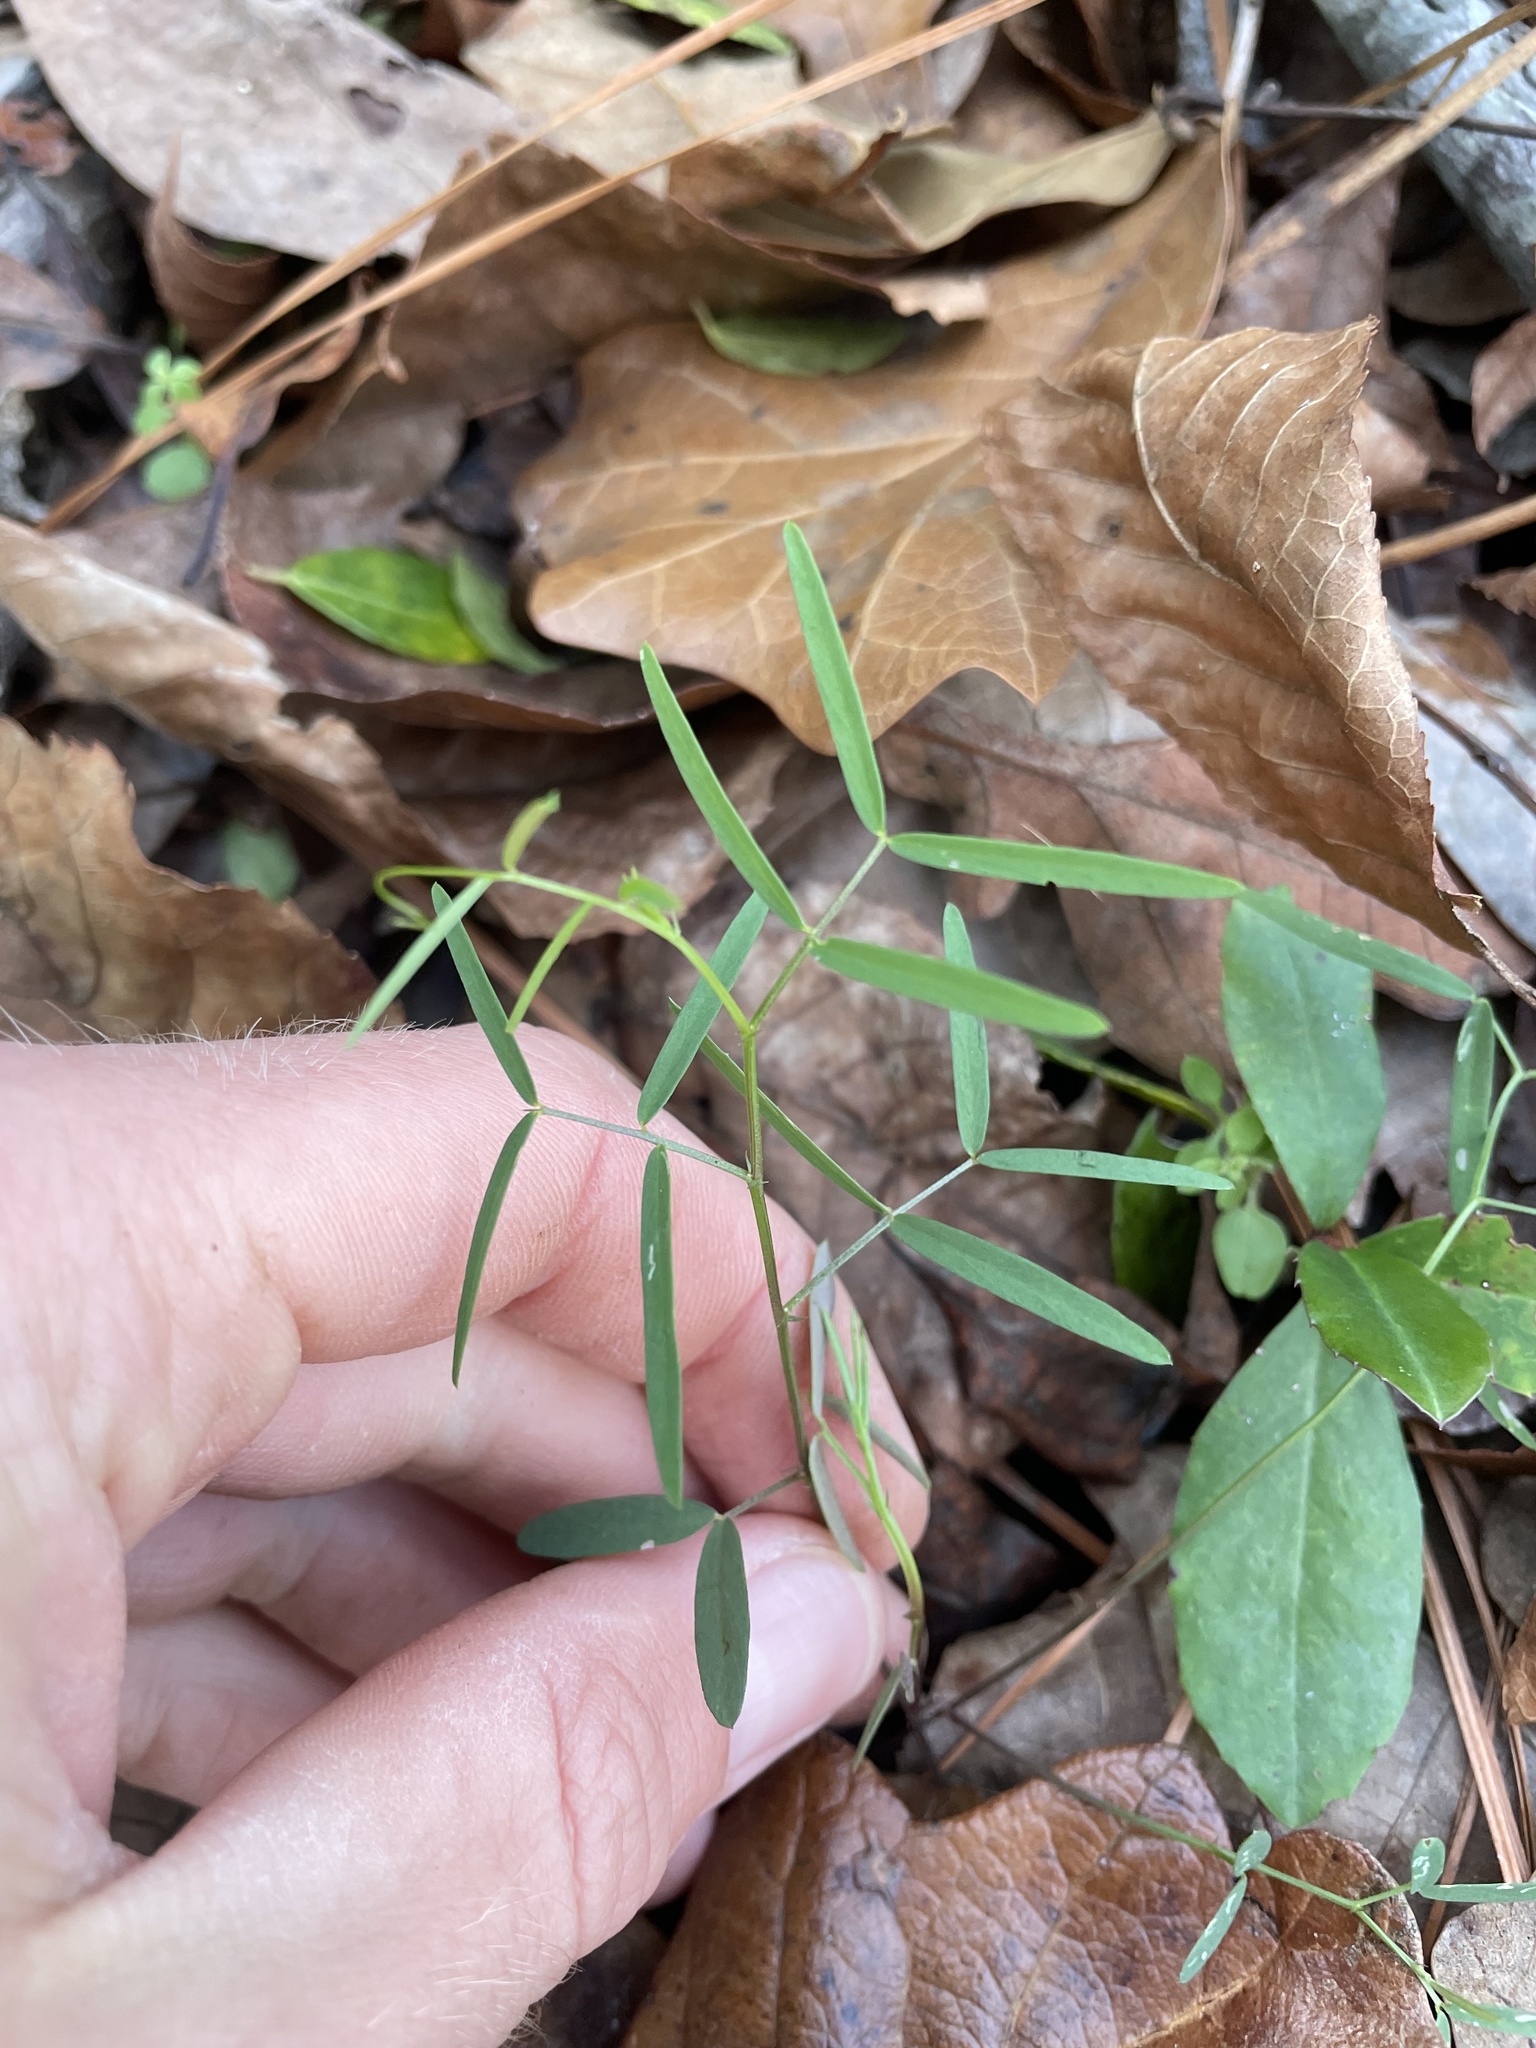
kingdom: Plantae
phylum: Tracheophyta
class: Magnoliopsida
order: Fabales
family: Fabaceae
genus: Vicia
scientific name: Vicia minutiflora
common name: Pygmy-flower vetch
